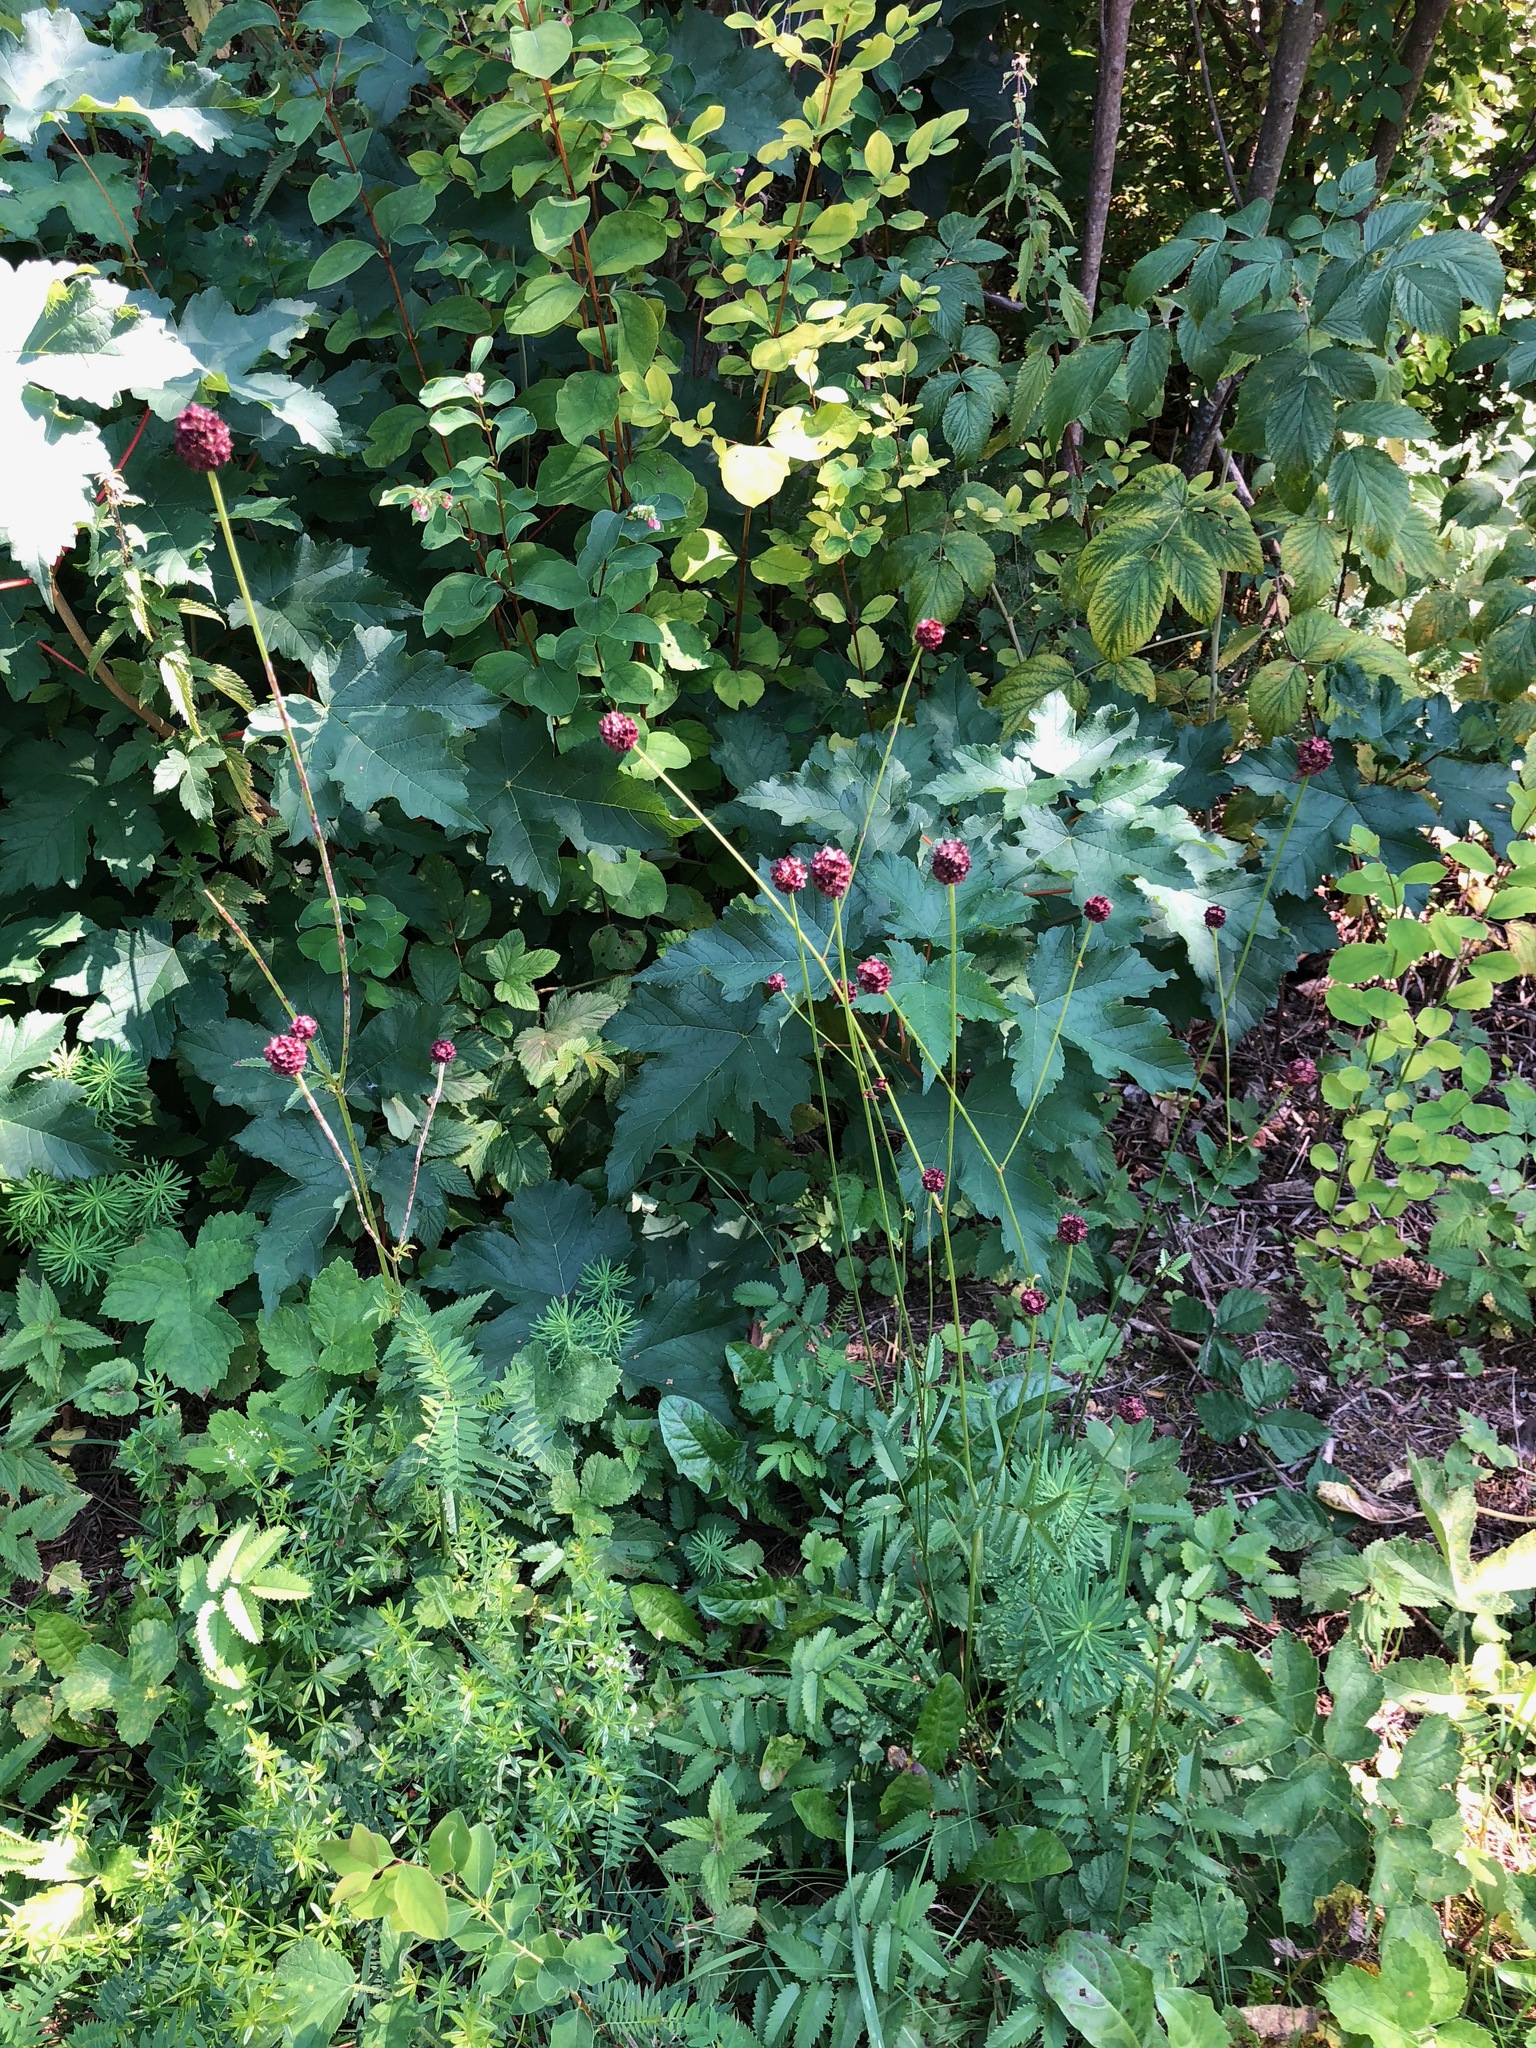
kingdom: Plantae
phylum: Tracheophyta
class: Magnoliopsida
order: Rosales
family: Rosaceae
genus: Sanguisorba
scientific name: Sanguisorba officinalis
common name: Great burnet
